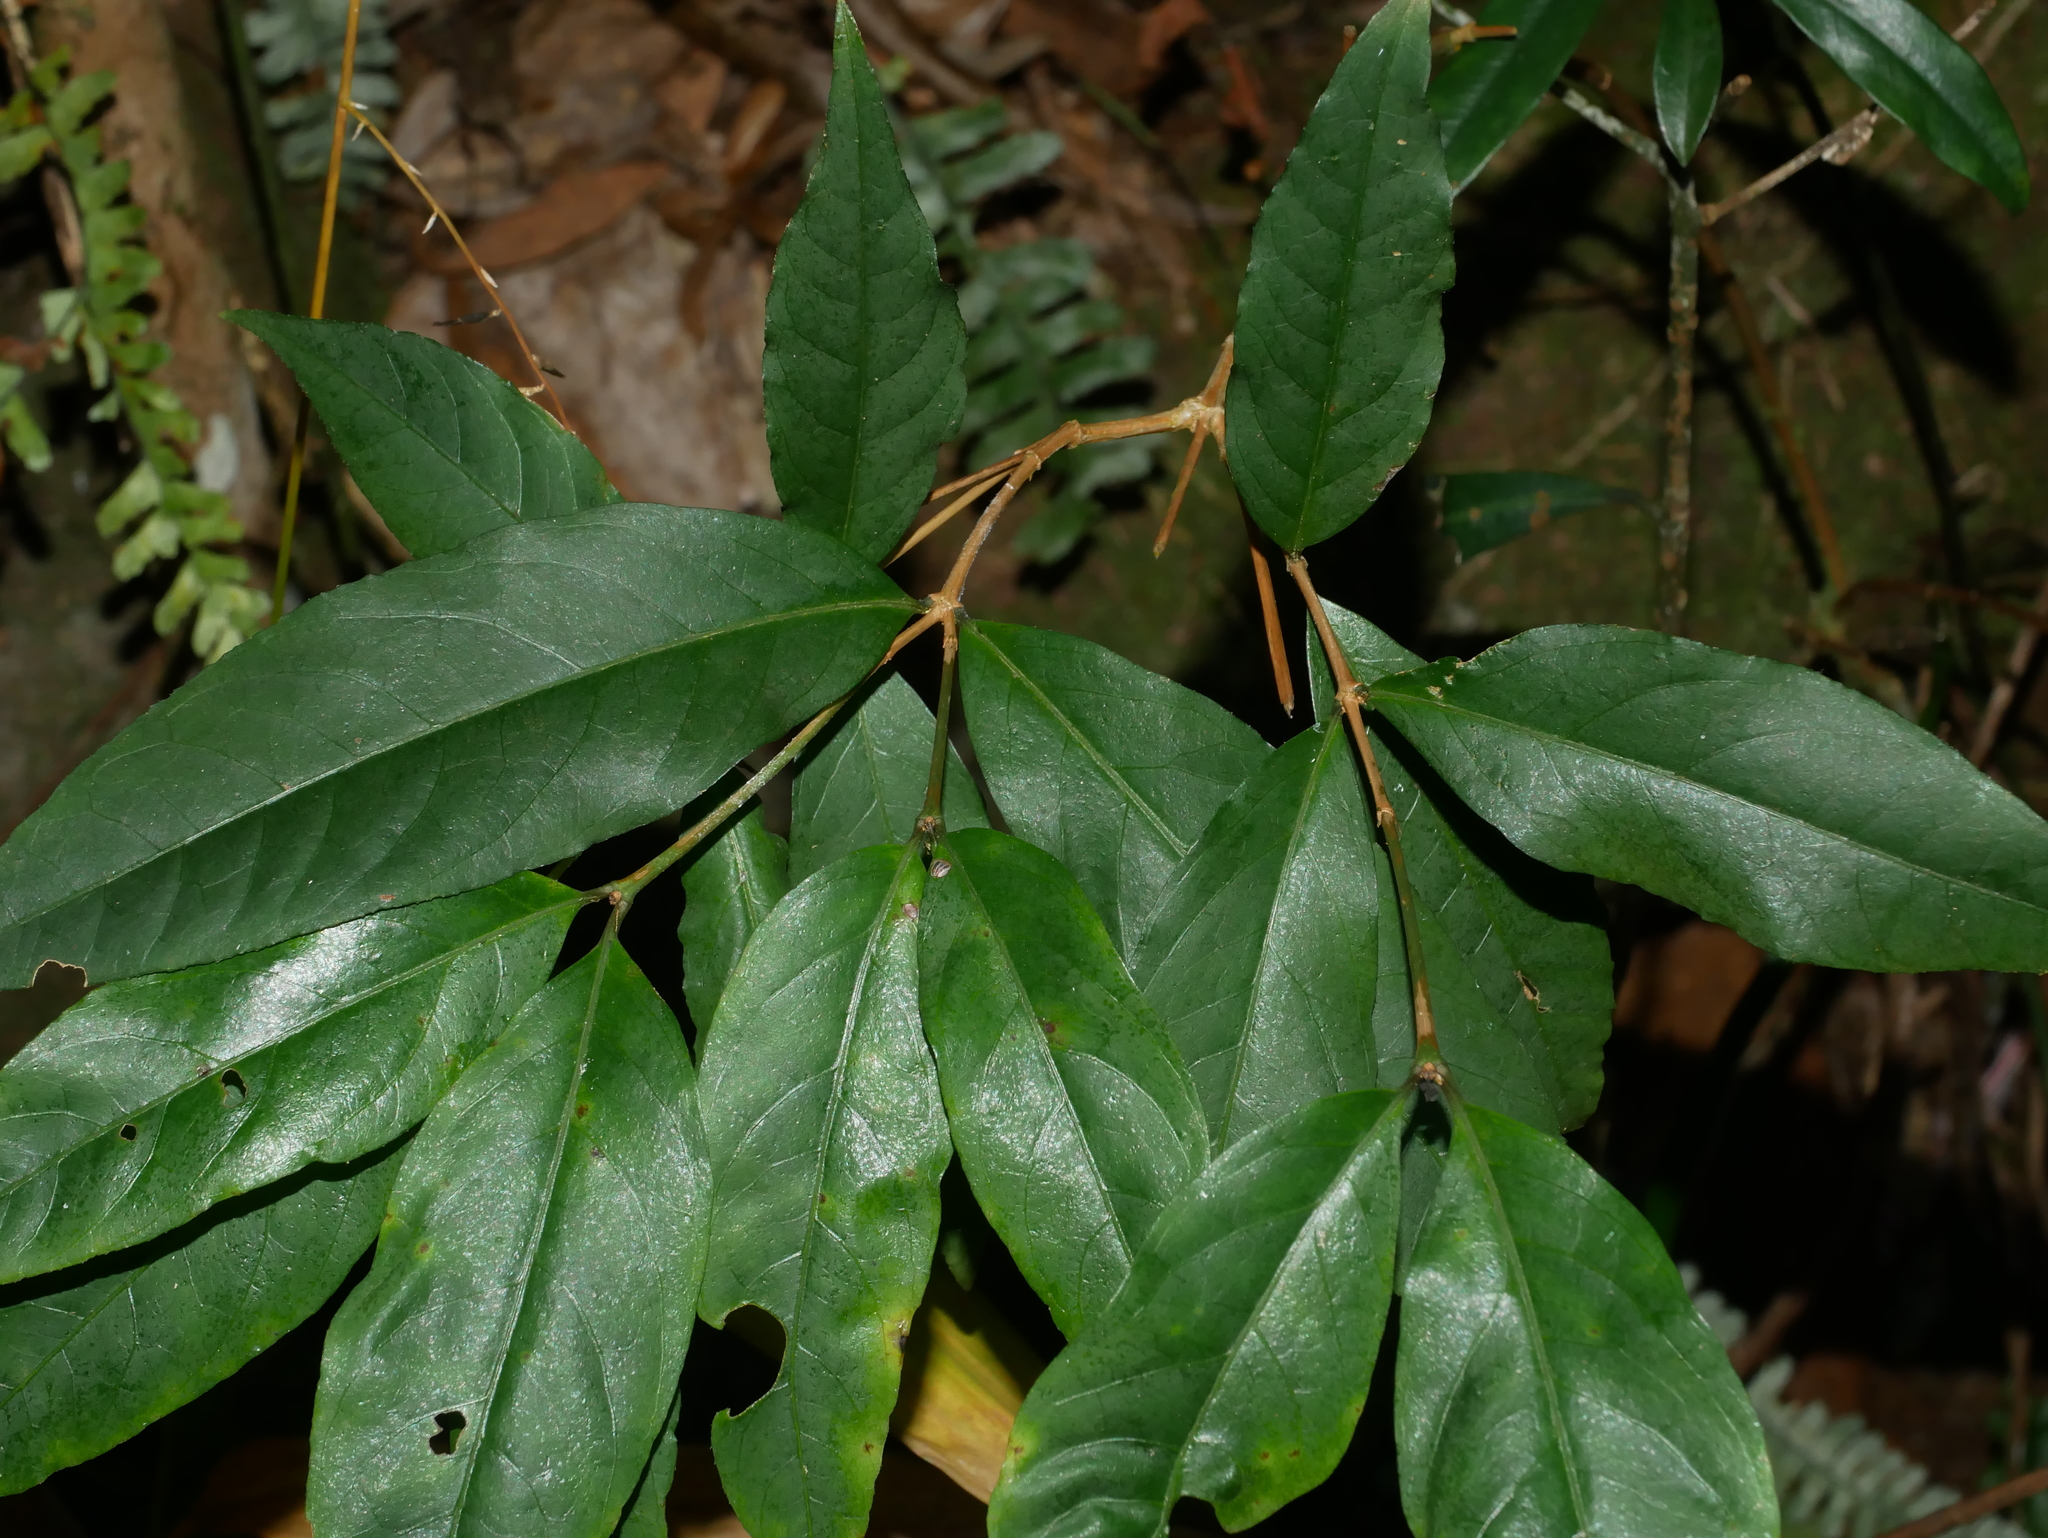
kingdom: Plantae
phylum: Tracheophyta
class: Magnoliopsida
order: Gentianales
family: Rubiaceae
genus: Damnacanthus
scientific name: Damnacanthus giganteus
